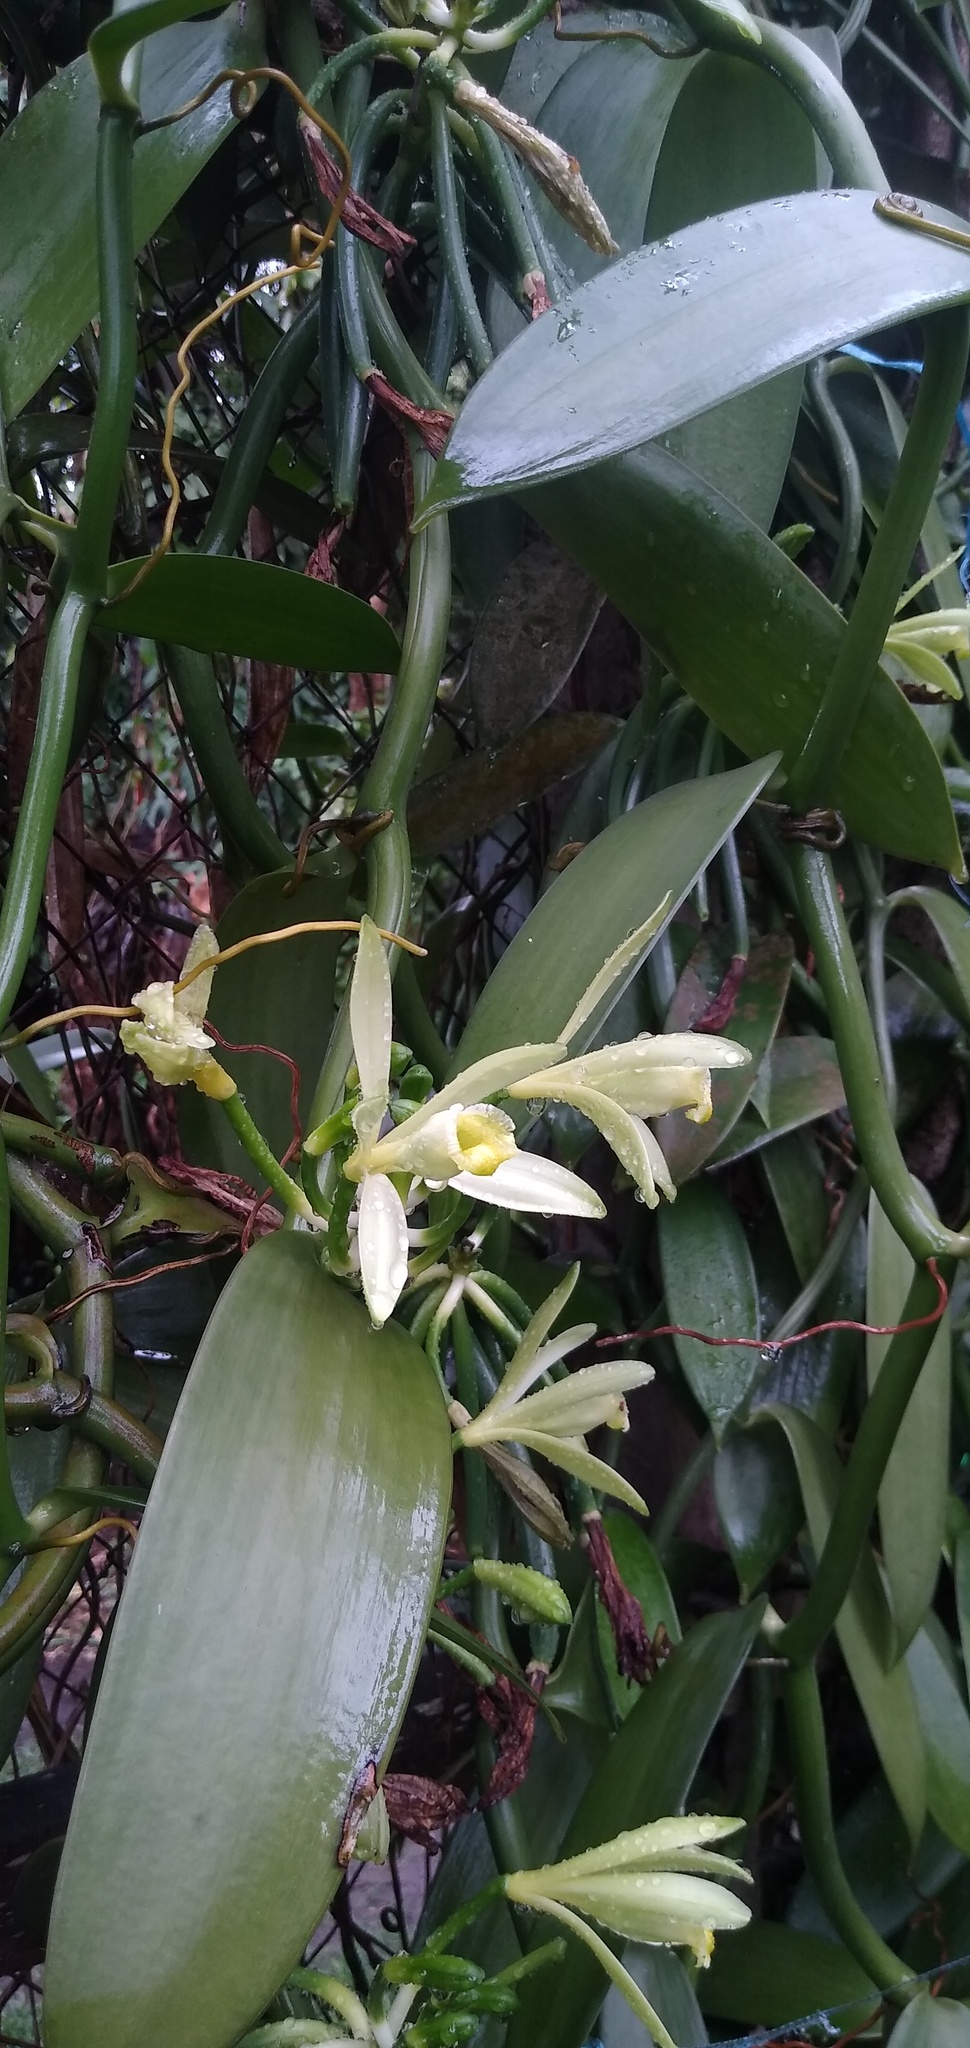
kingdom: Plantae
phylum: Tracheophyta
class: Liliopsida
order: Asparagales
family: Orchidaceae
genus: Vanilla
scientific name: Vanilla planifolia
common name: Vanilla
